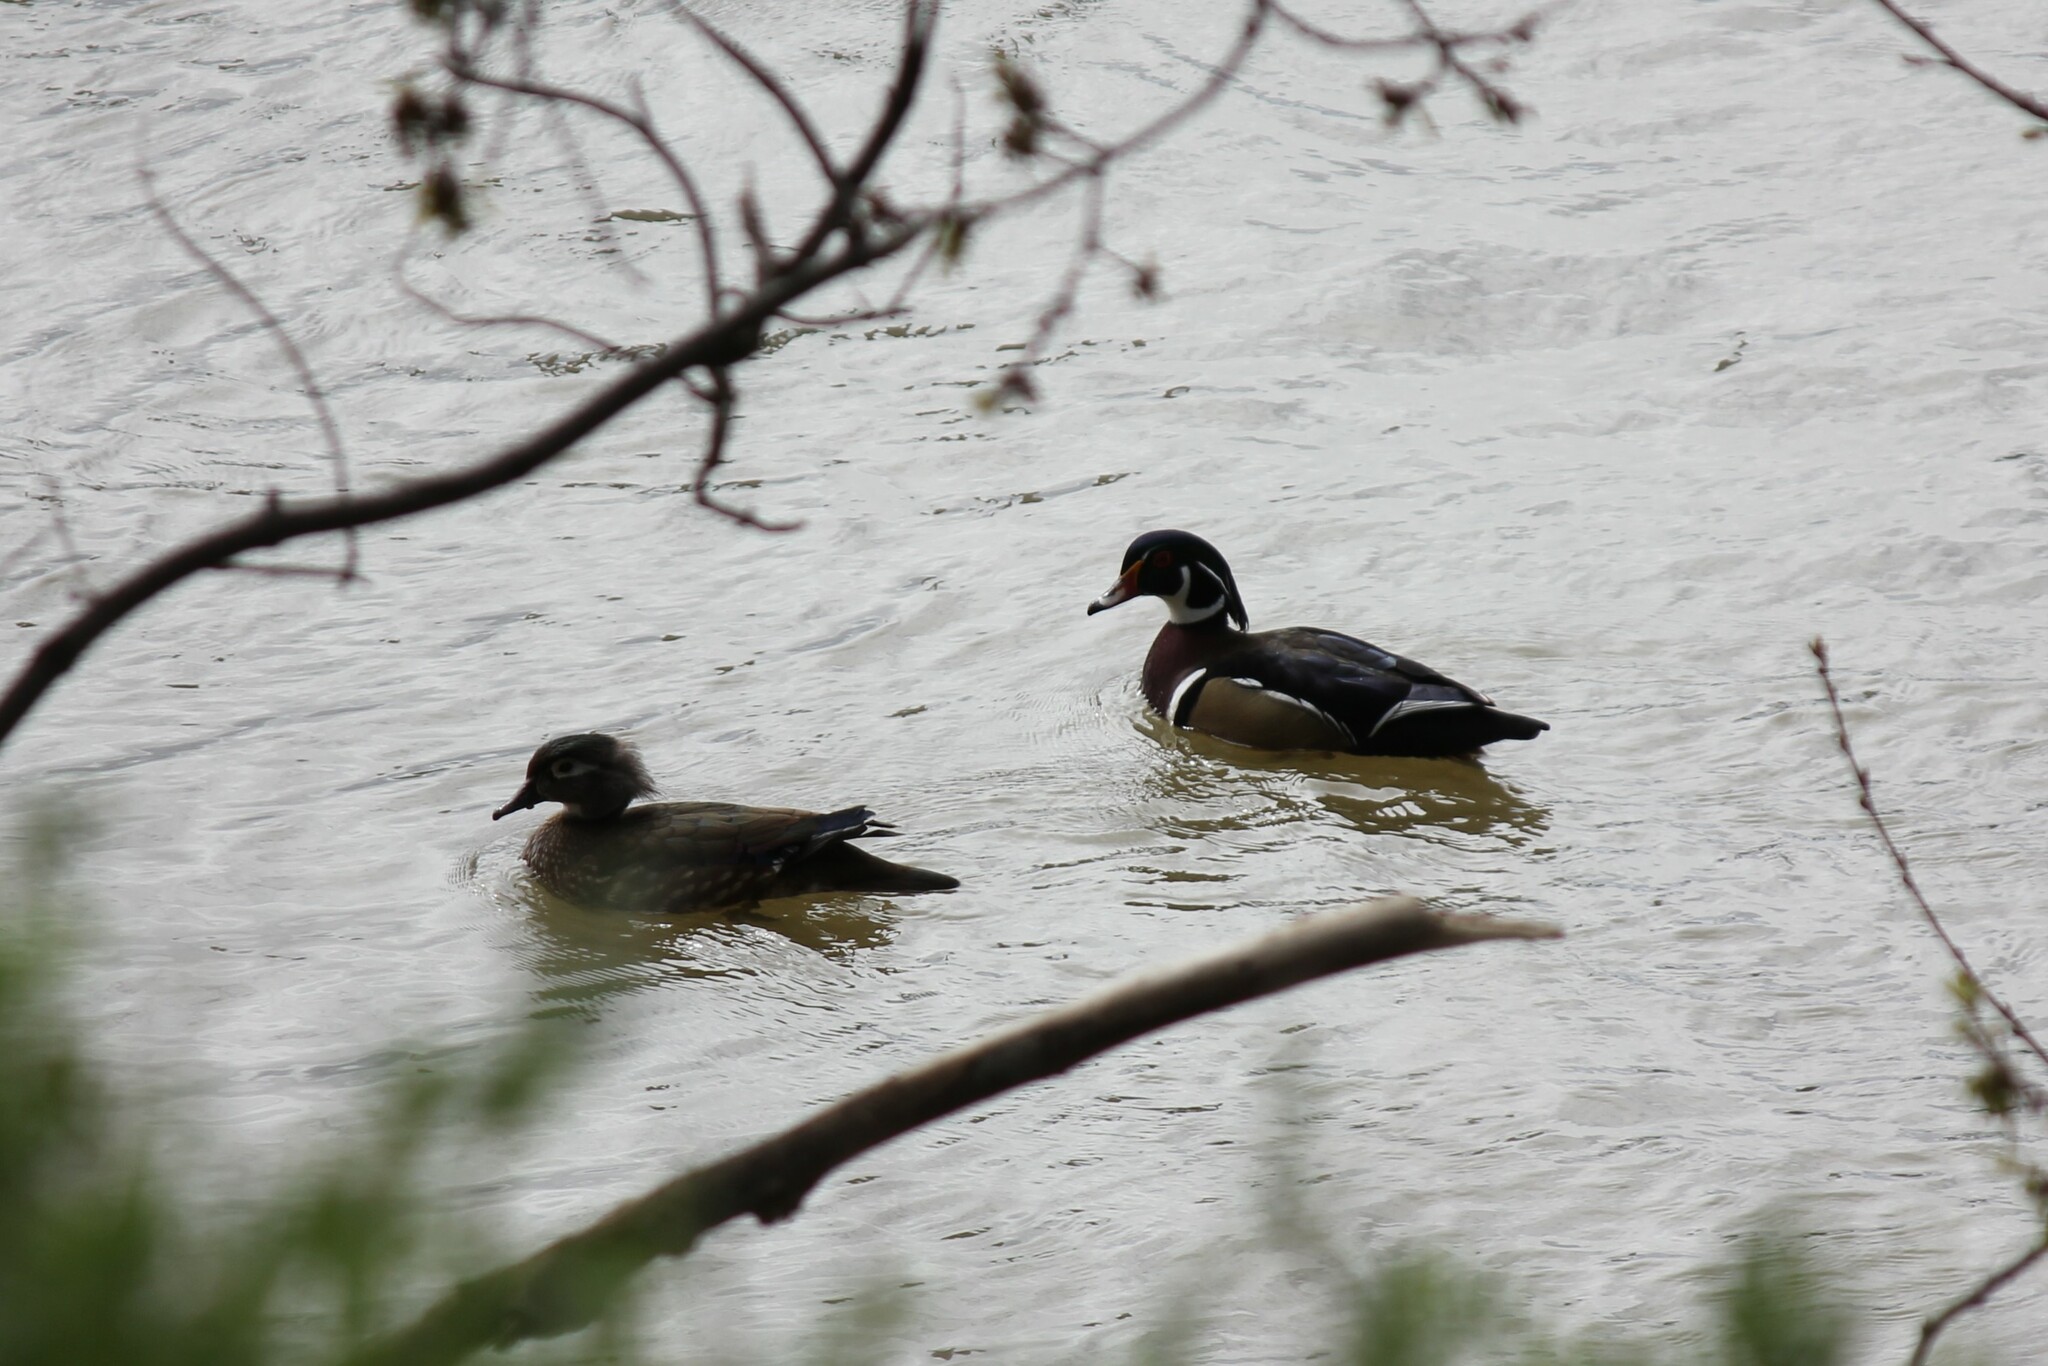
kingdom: Animalia
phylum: Chordata
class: Aves
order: Anseriformes
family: Anatidae
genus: Aix
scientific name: Aix sponsa
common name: Wood duck
